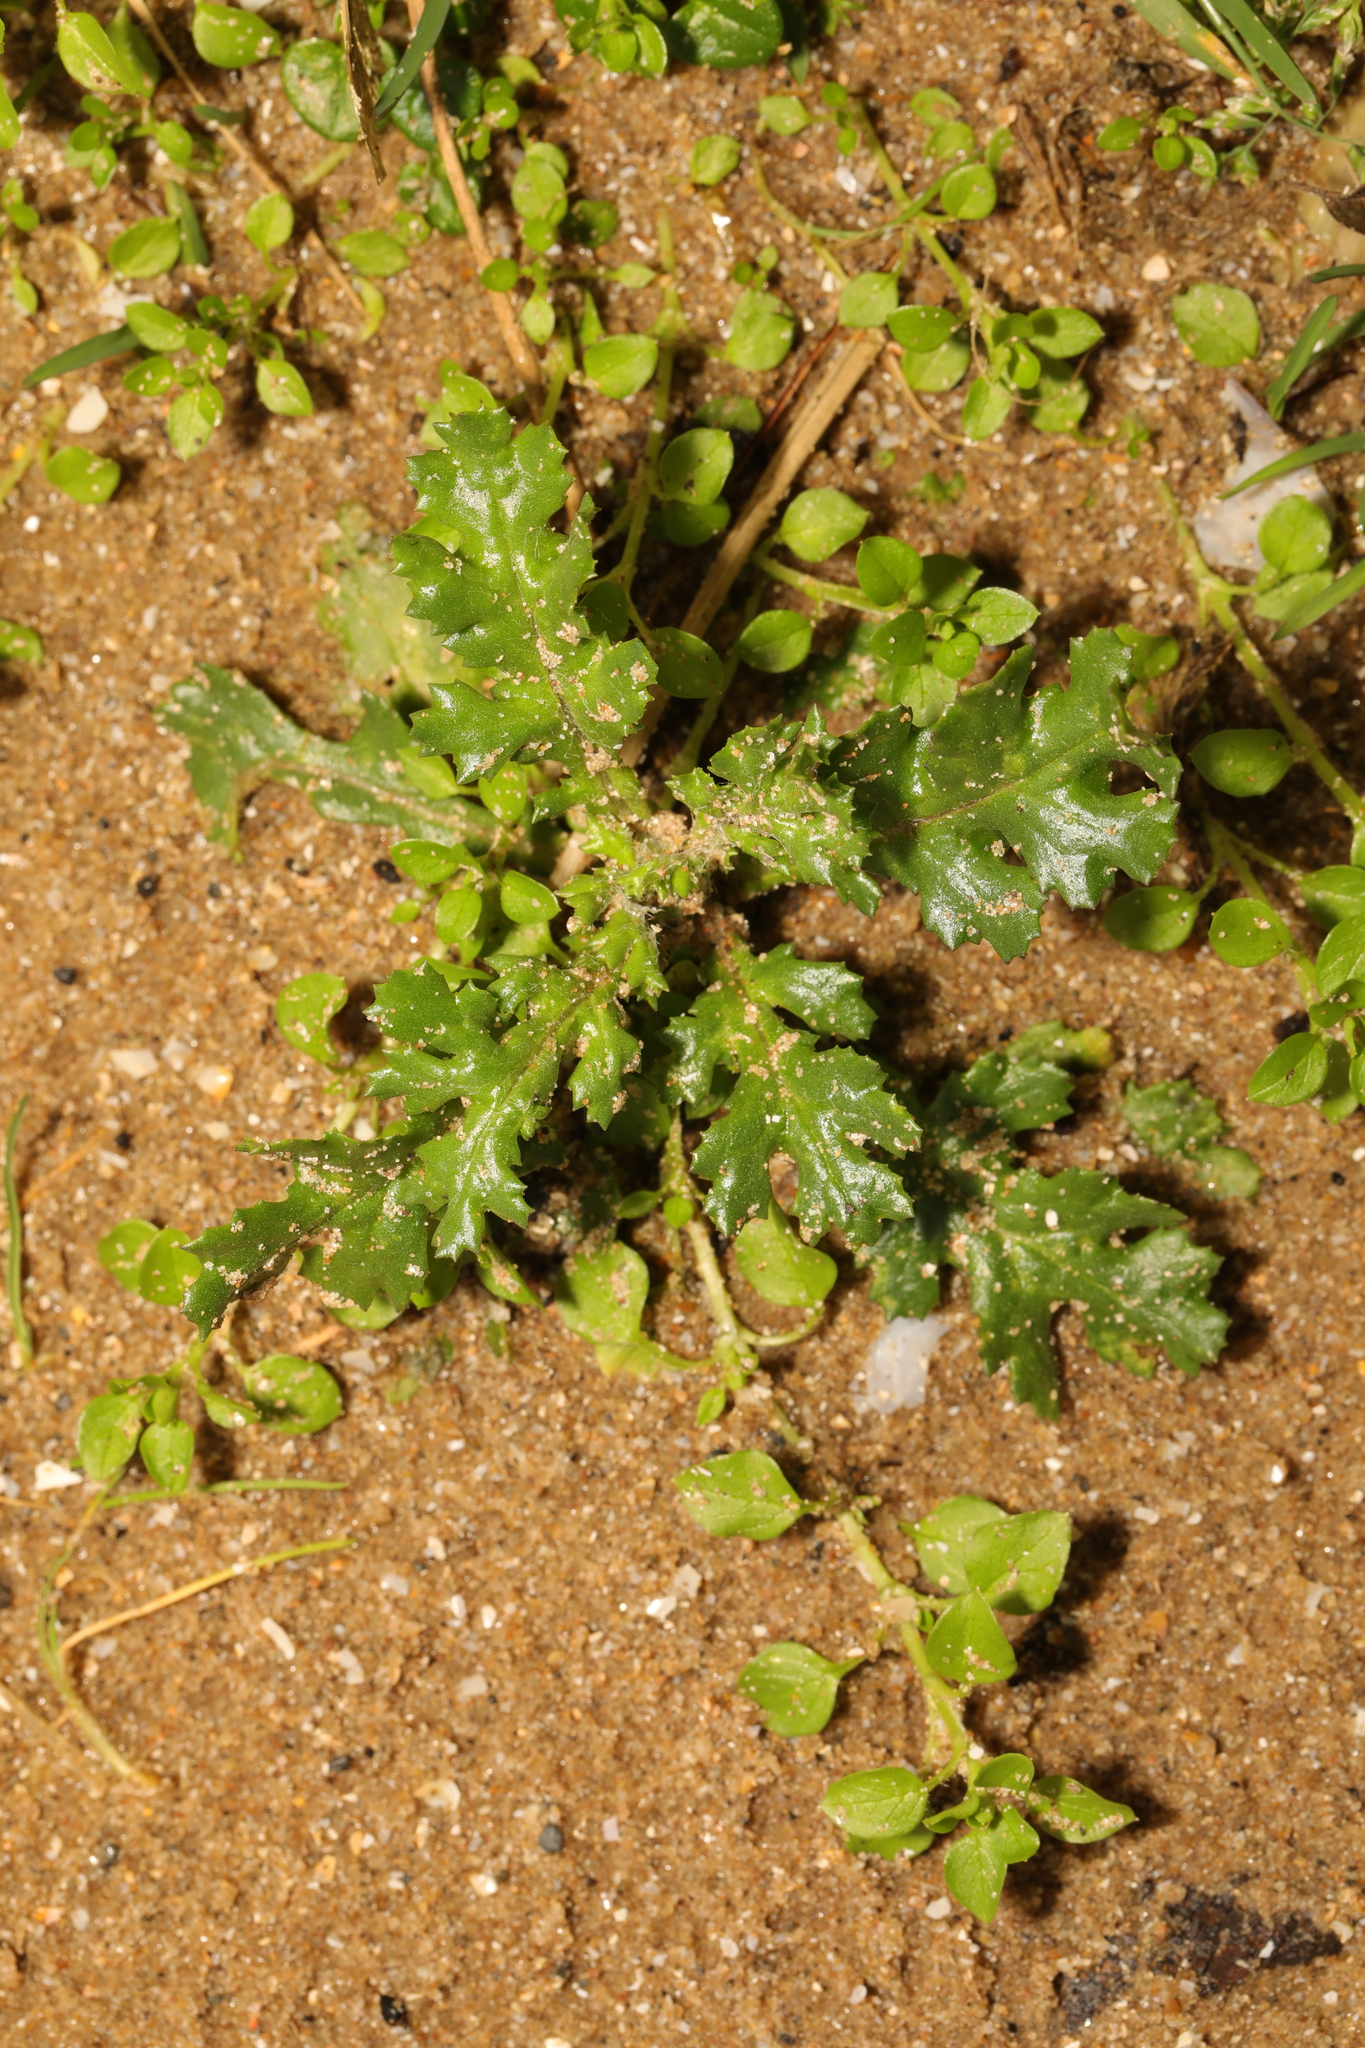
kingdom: Plantae
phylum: Tracheophyta
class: Magnoliopsida
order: Asterales
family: Asteraceae
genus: Senecio
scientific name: Senecio vulgaris
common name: Old-man-in-the-spring
